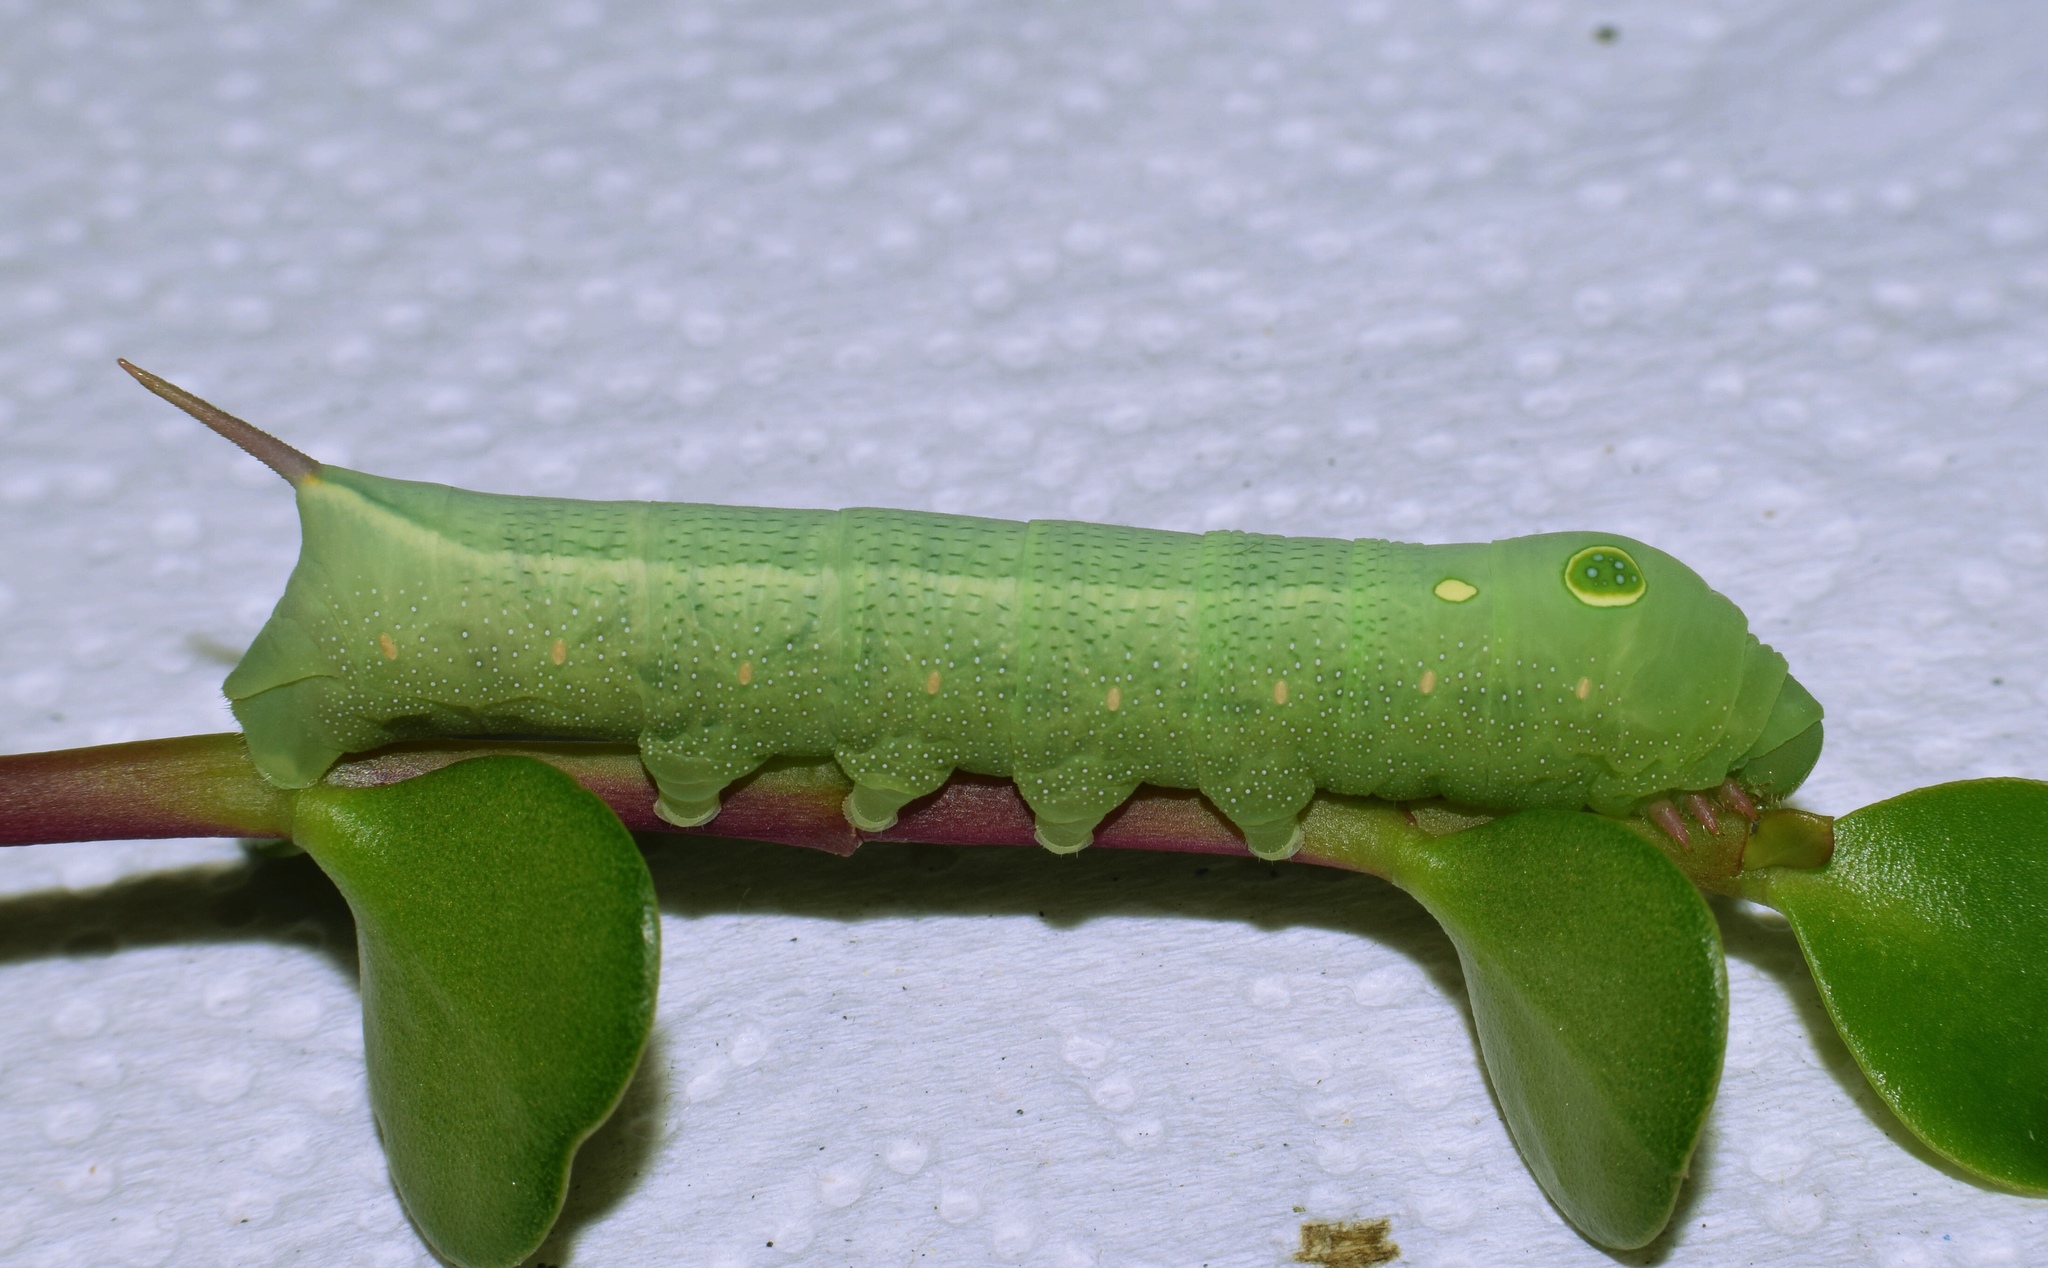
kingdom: Animalia
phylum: Arthropoda
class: Insecta
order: Lepidoptera
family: Sphingidae
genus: Hippotion
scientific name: Hippotion celerio
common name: Silver-striped hawk-moth
